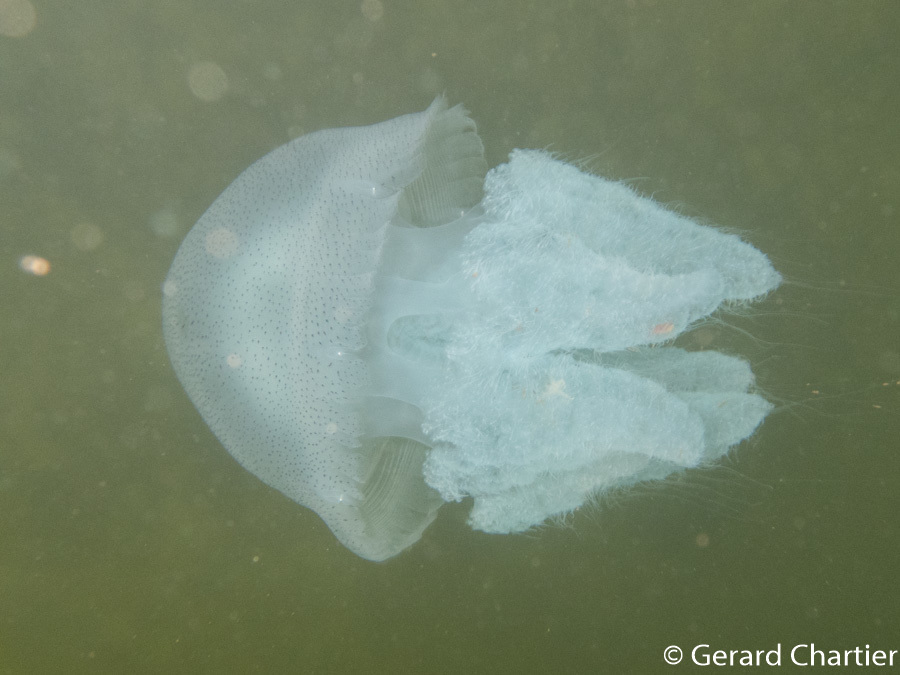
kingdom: Animalia
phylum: Cnidaria
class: Scyphozoa
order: Rhizostomeae
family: Catostylidae
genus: Acromitus
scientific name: Acromitus flagellatus
